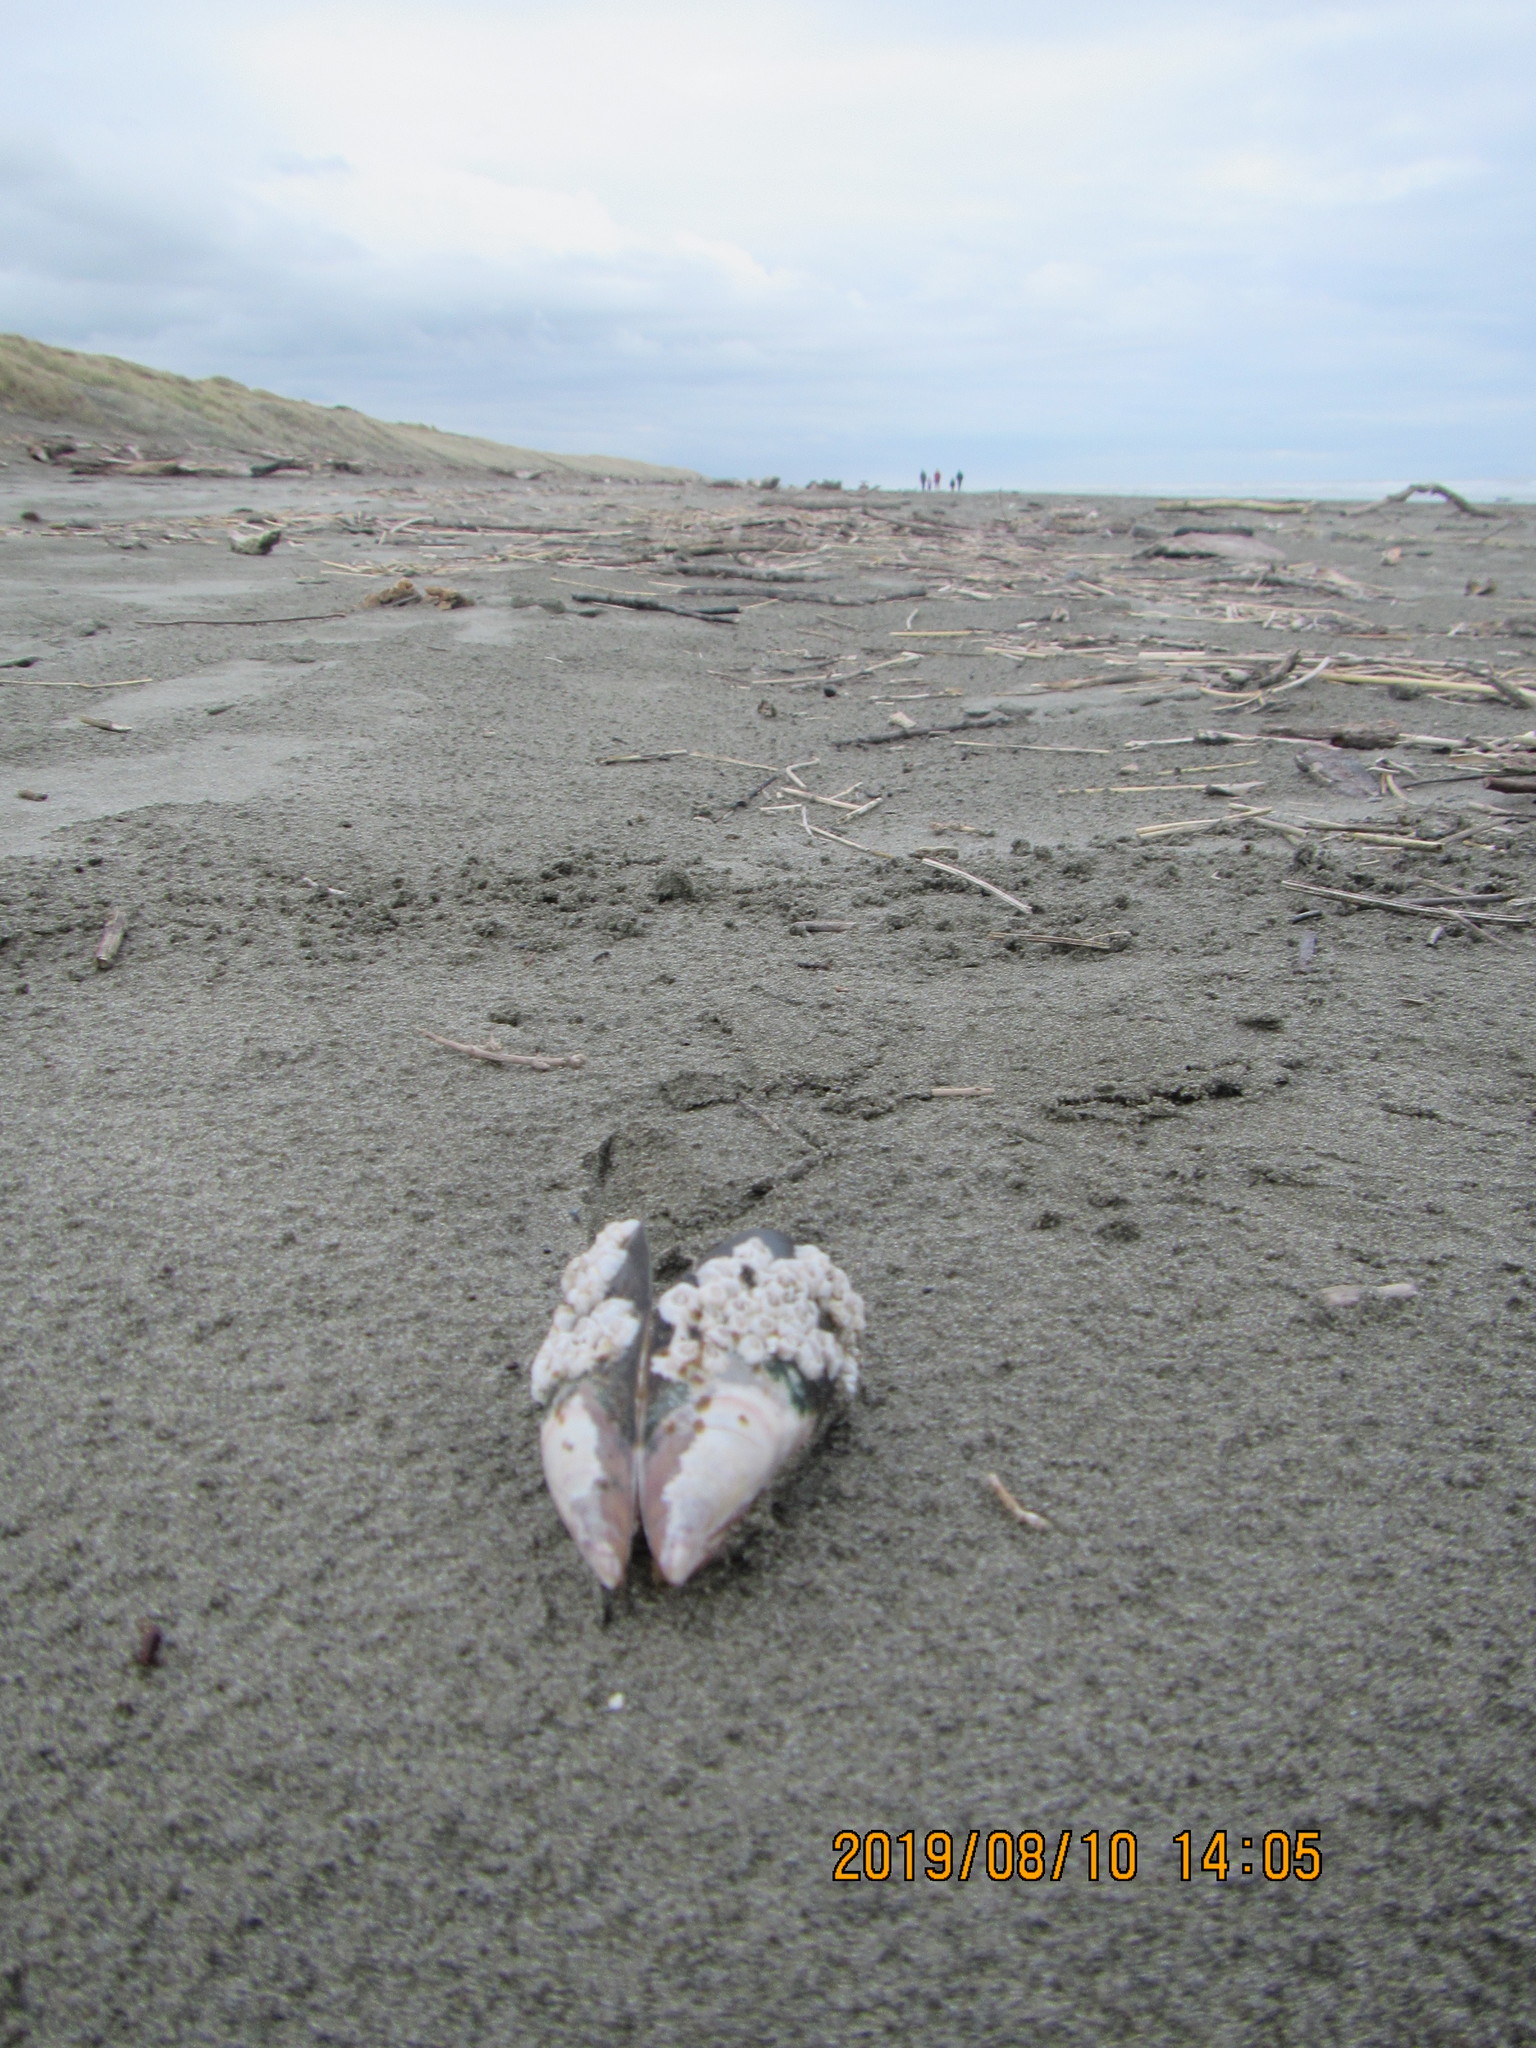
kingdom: Animalia
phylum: Arthropoda
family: Elminiidae
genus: Austrominius
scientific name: Austrominius modestus
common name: Australasian barnacle
